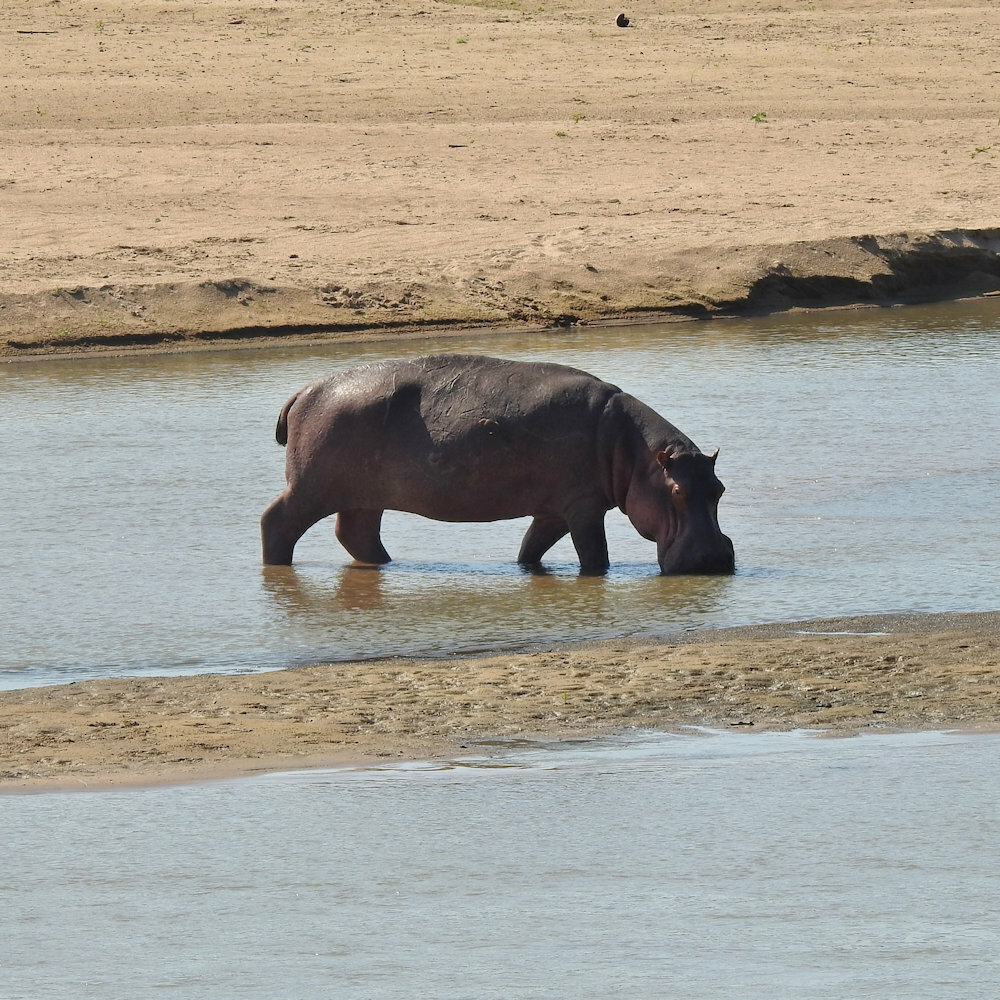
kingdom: Animalia
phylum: Chordata
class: Mammalia
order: Artiodactyla
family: Hippopotamidae
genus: Hippopotamus
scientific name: Hippopotamus amphibius
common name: Common hippopotamus
